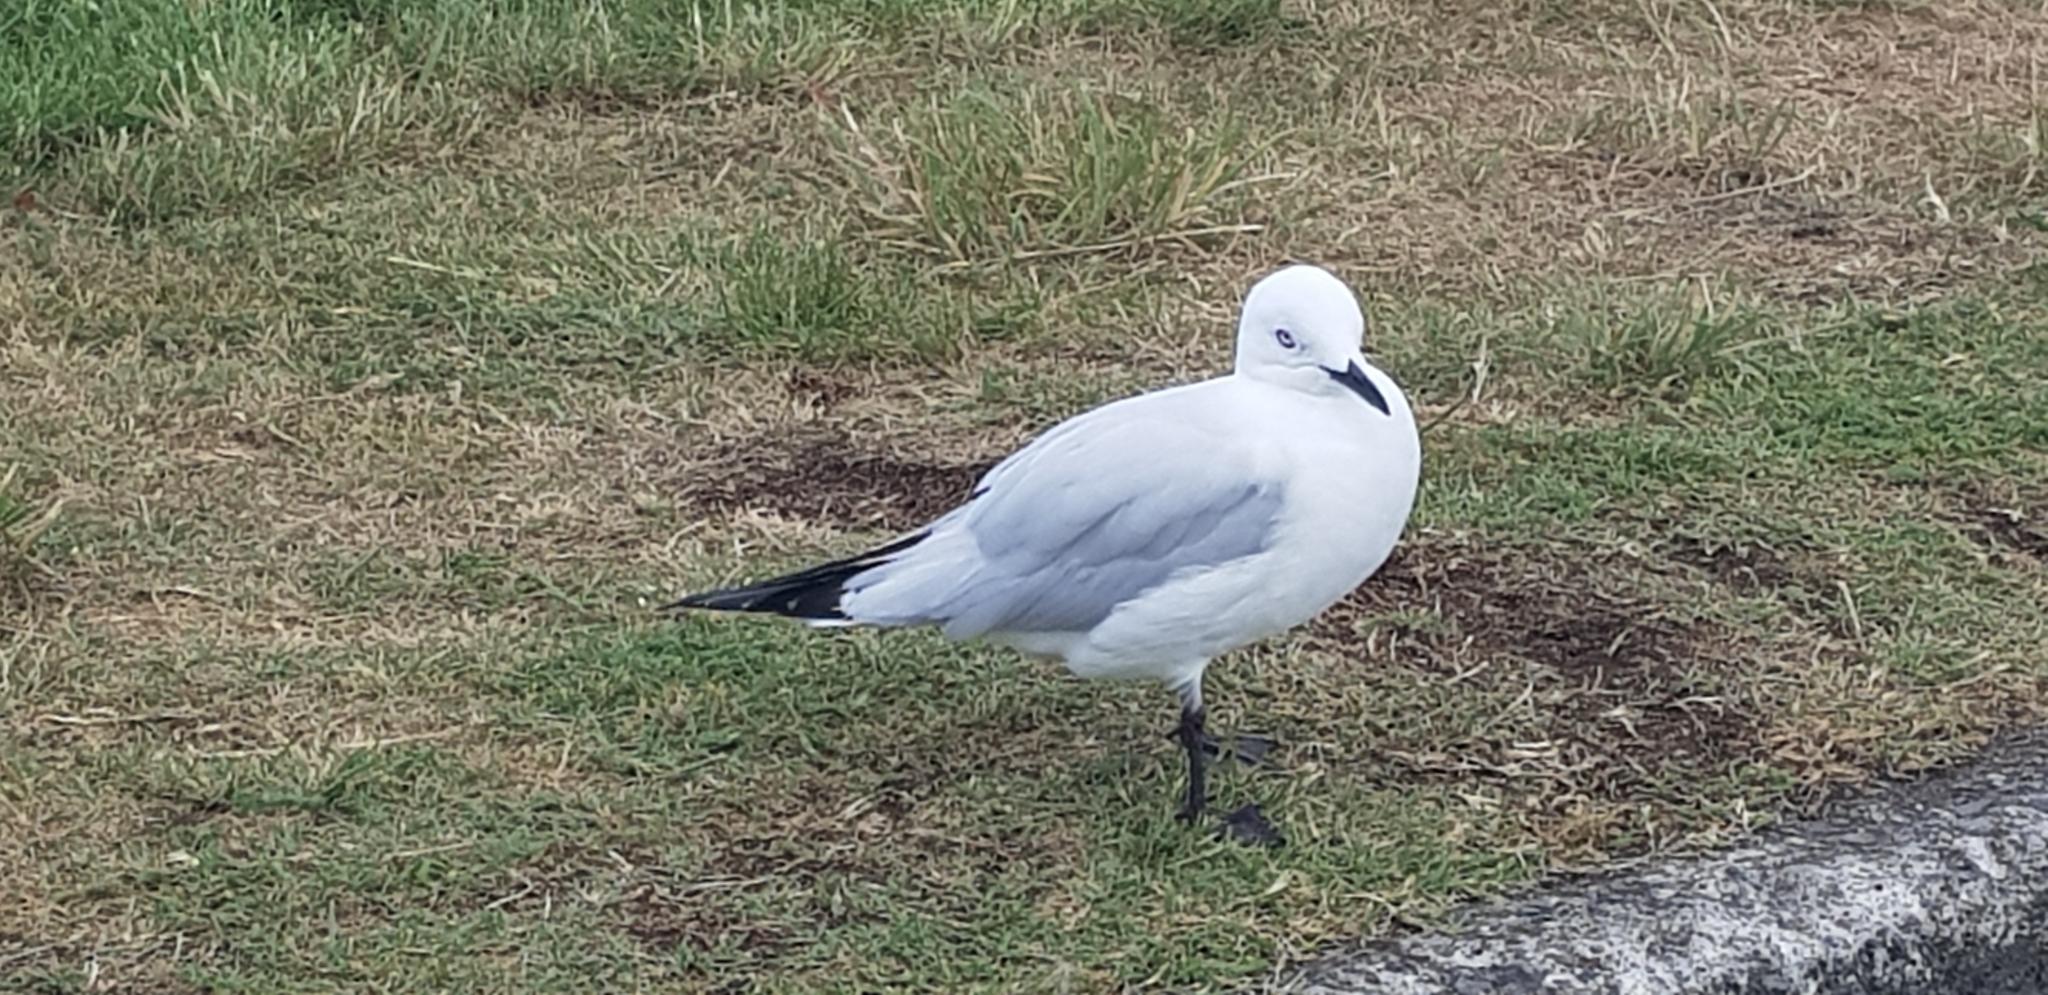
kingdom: Animalia
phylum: Chordata
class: Aves
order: Charadriiformes
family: Laridae
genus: Chroicocephalus
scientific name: Chroicocephalus bulleri
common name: Black-billed gull
